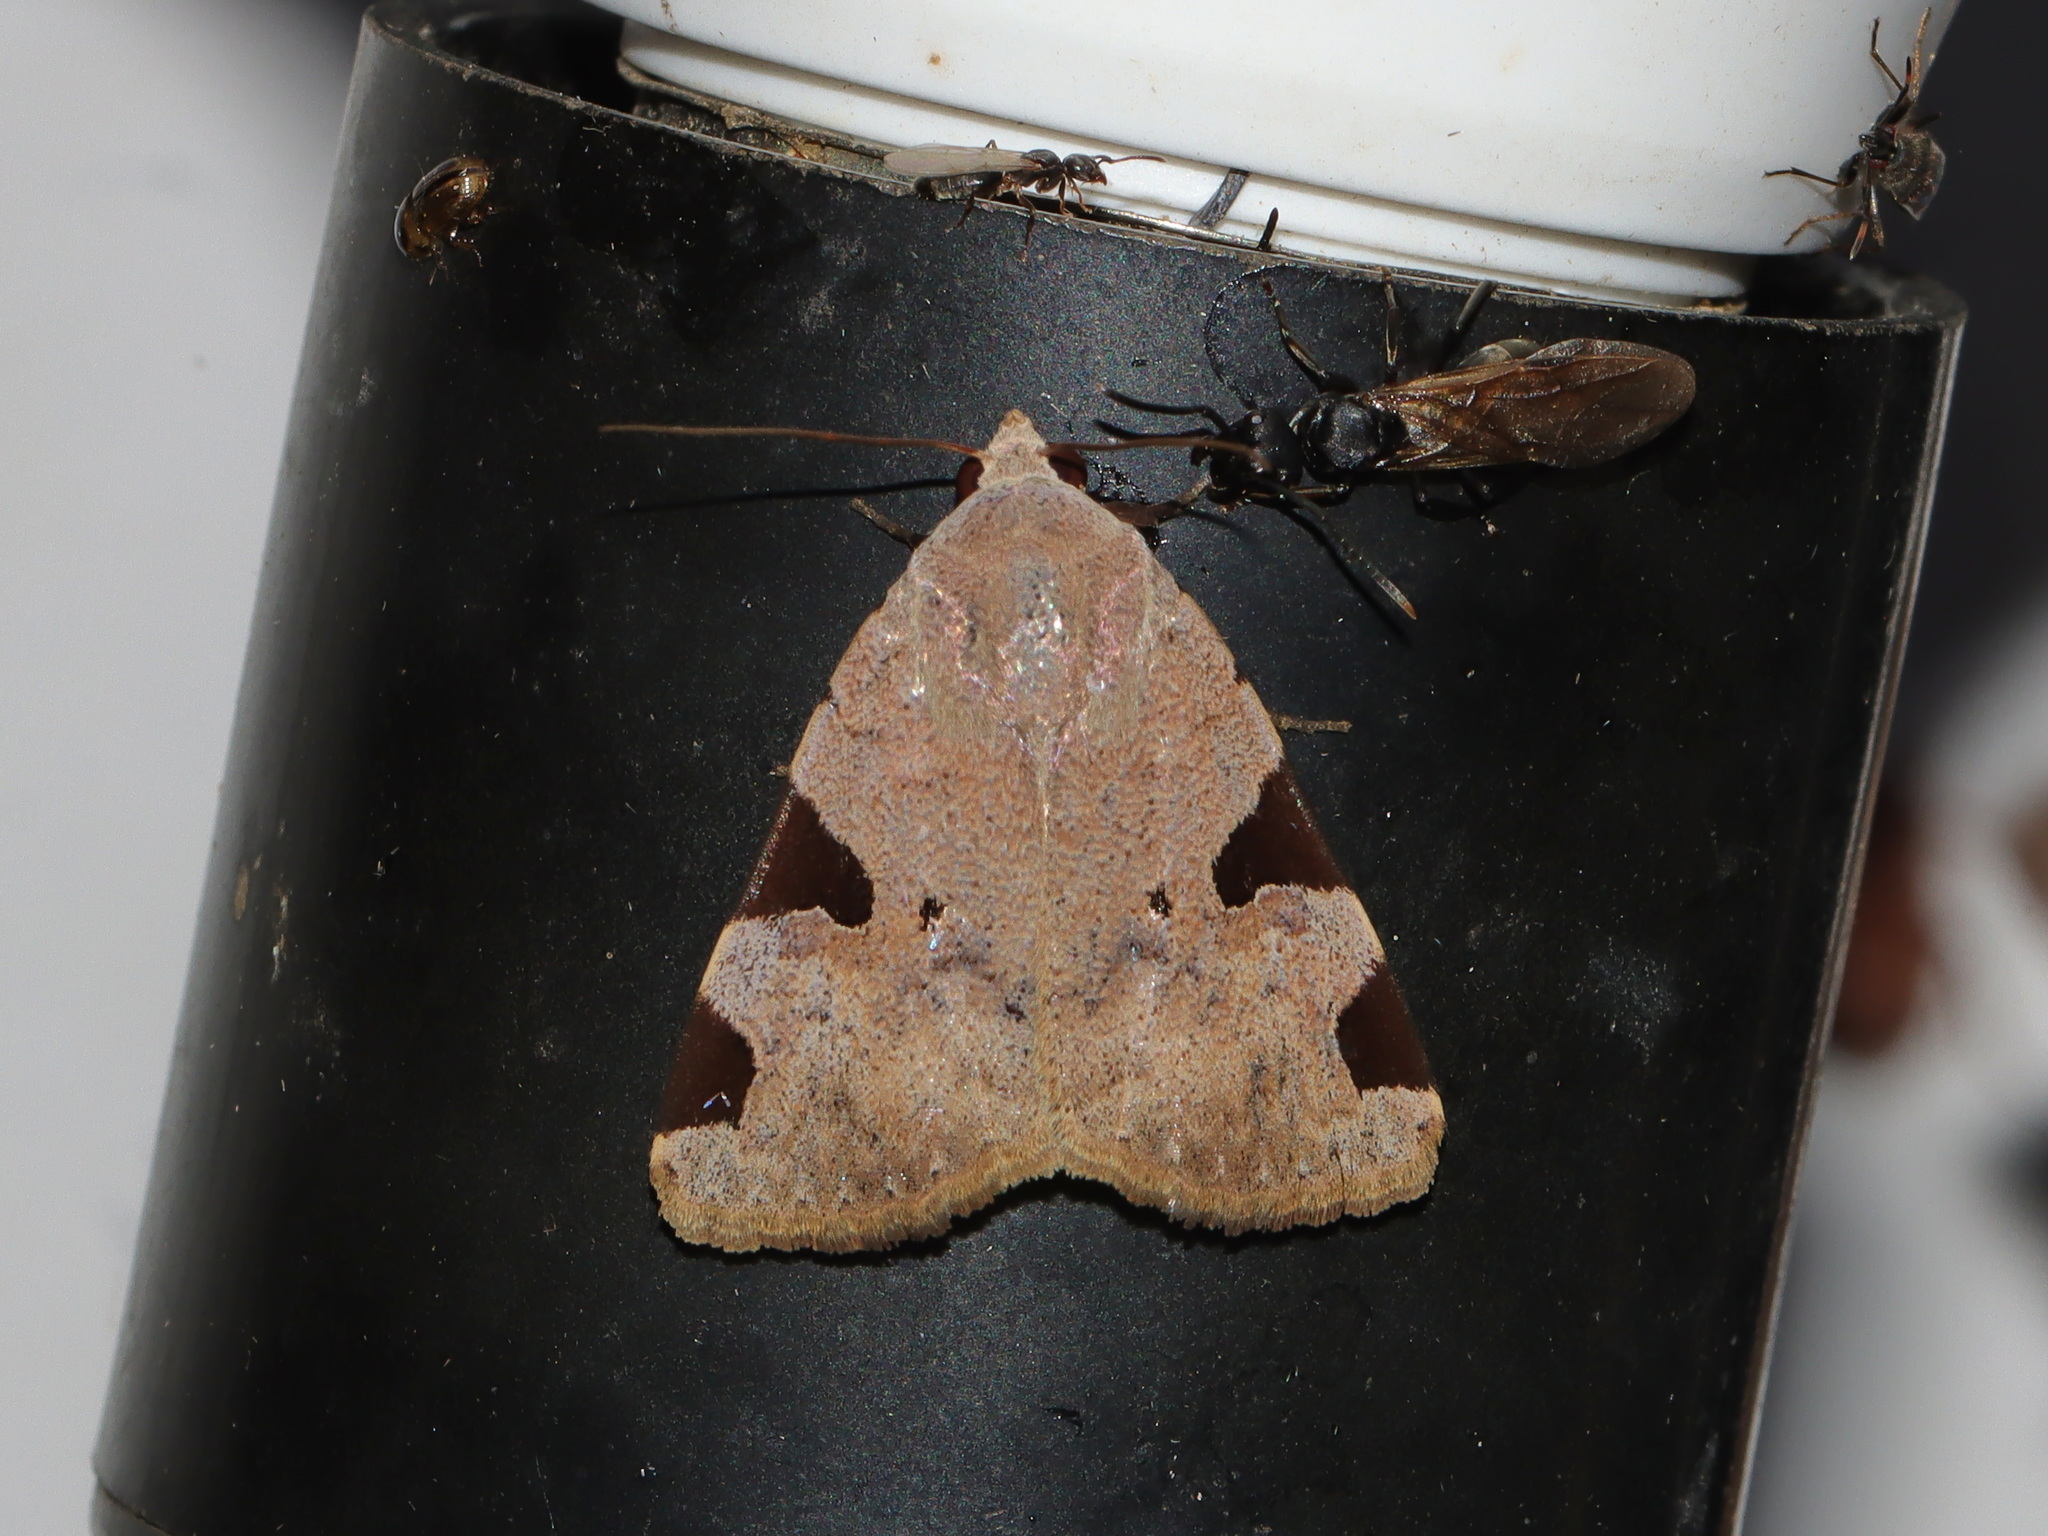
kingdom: Animalia
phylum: Arthropoda
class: Insecta
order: Lepidoptera
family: Noctuidae
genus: Athetis
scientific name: Athetis pellicea
